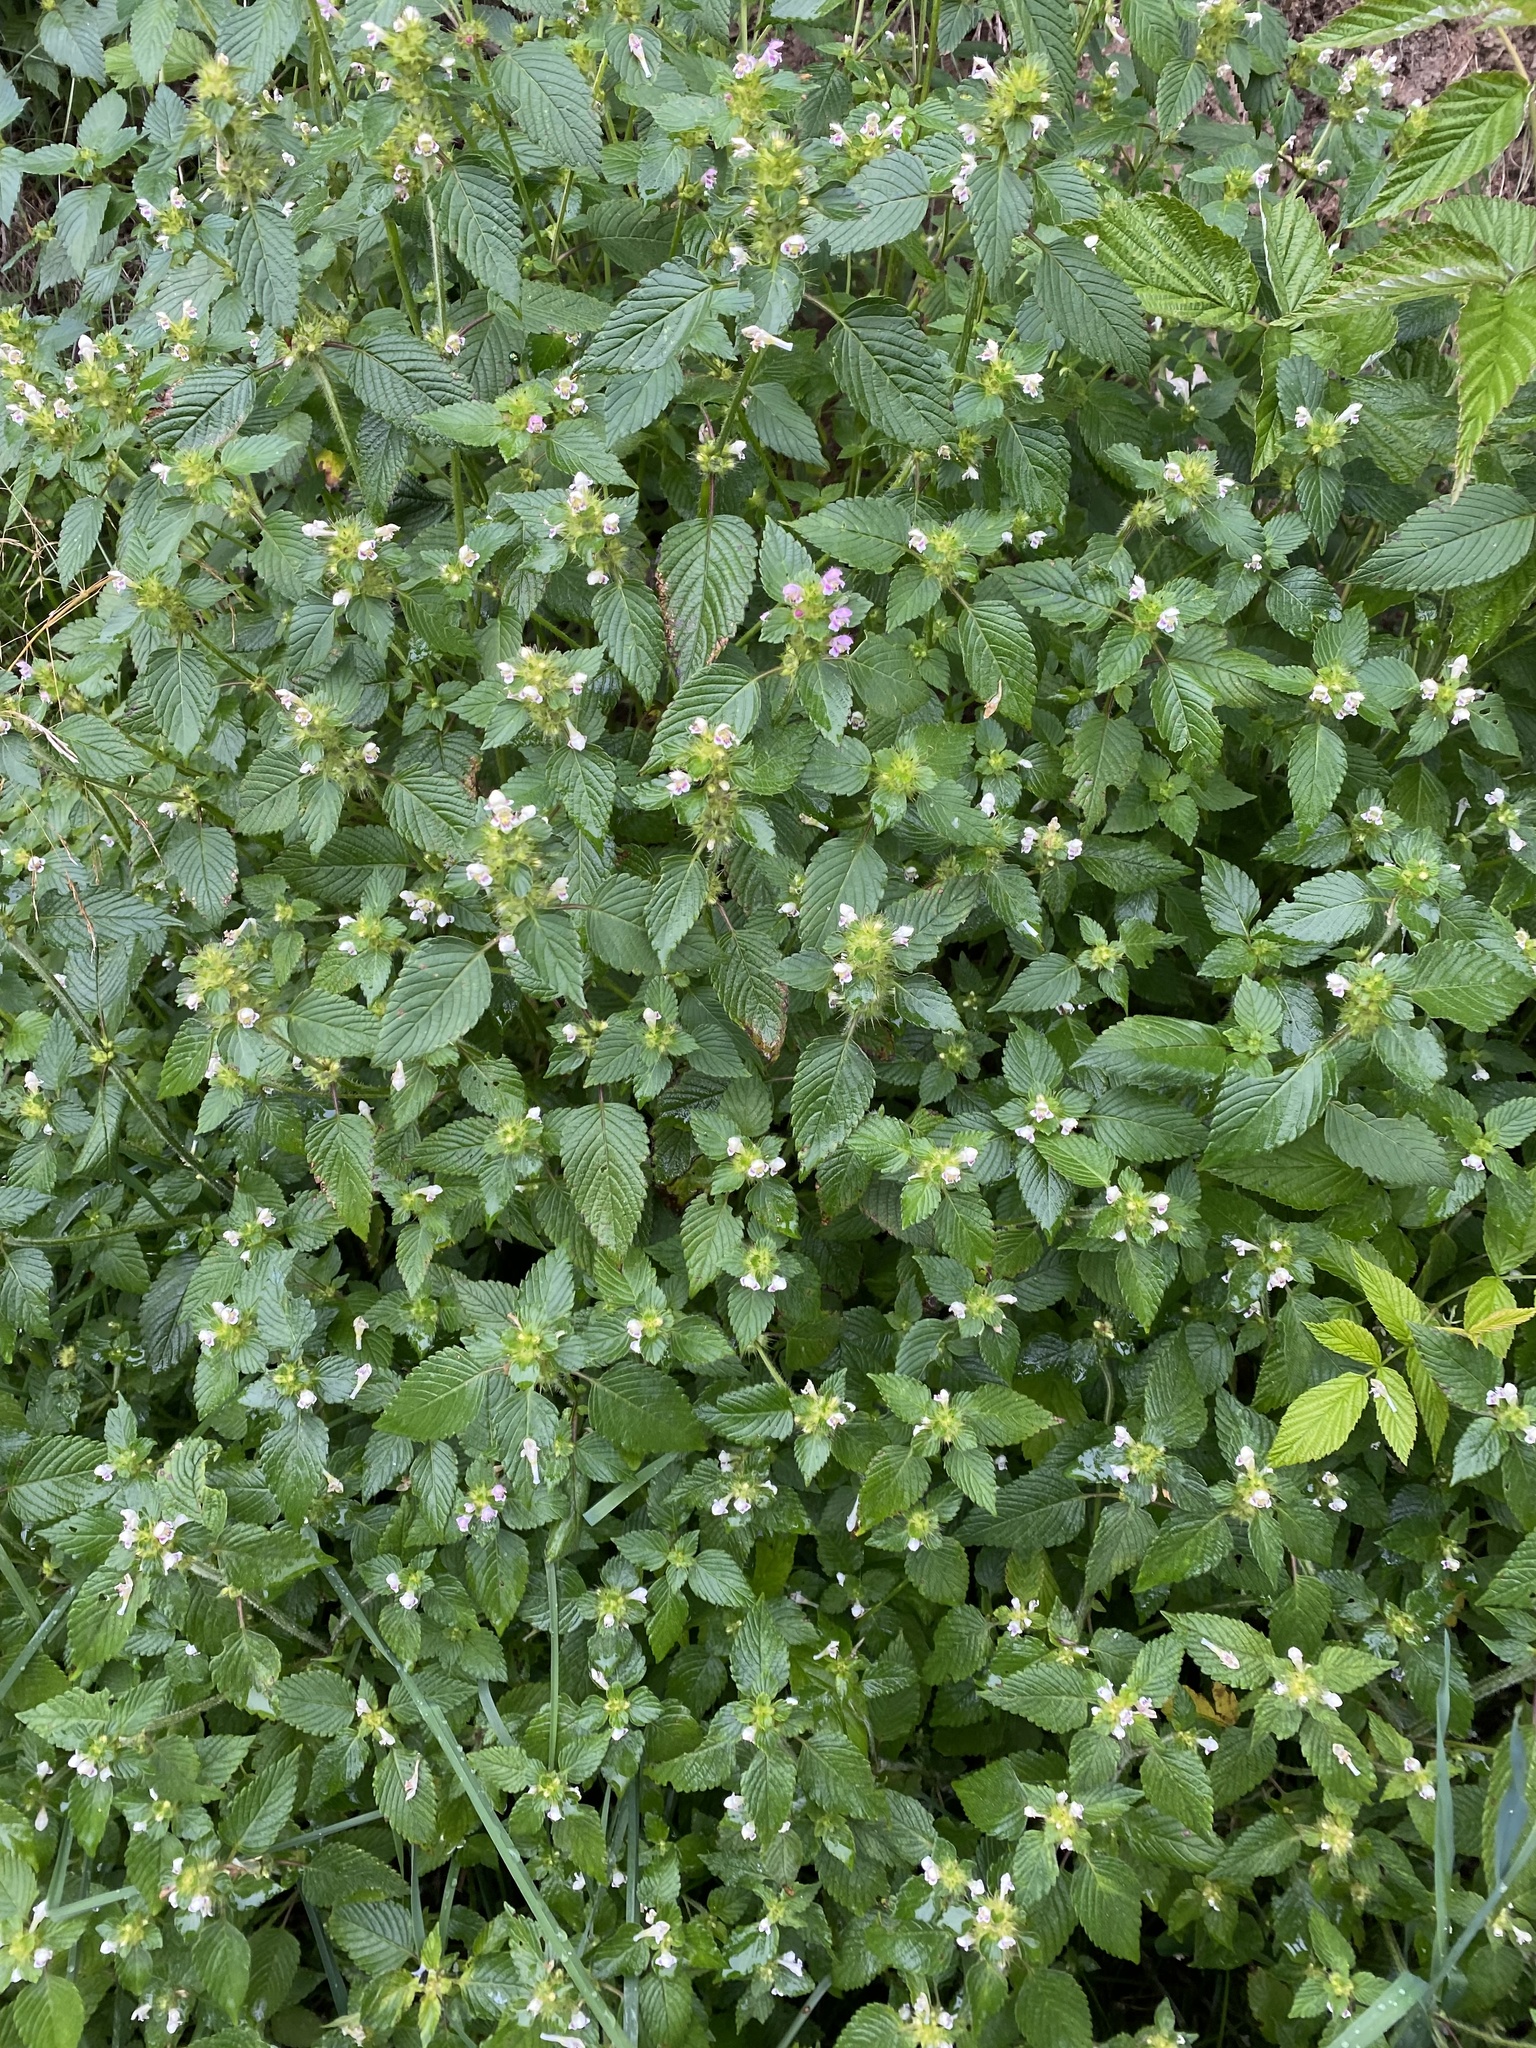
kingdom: Plantae
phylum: Tracheophyta
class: Magnoliopsida
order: Lamiales
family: Lamiaceae
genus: Galeopsis
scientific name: Galeopsis tetrahit
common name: Common hemp-nettle
